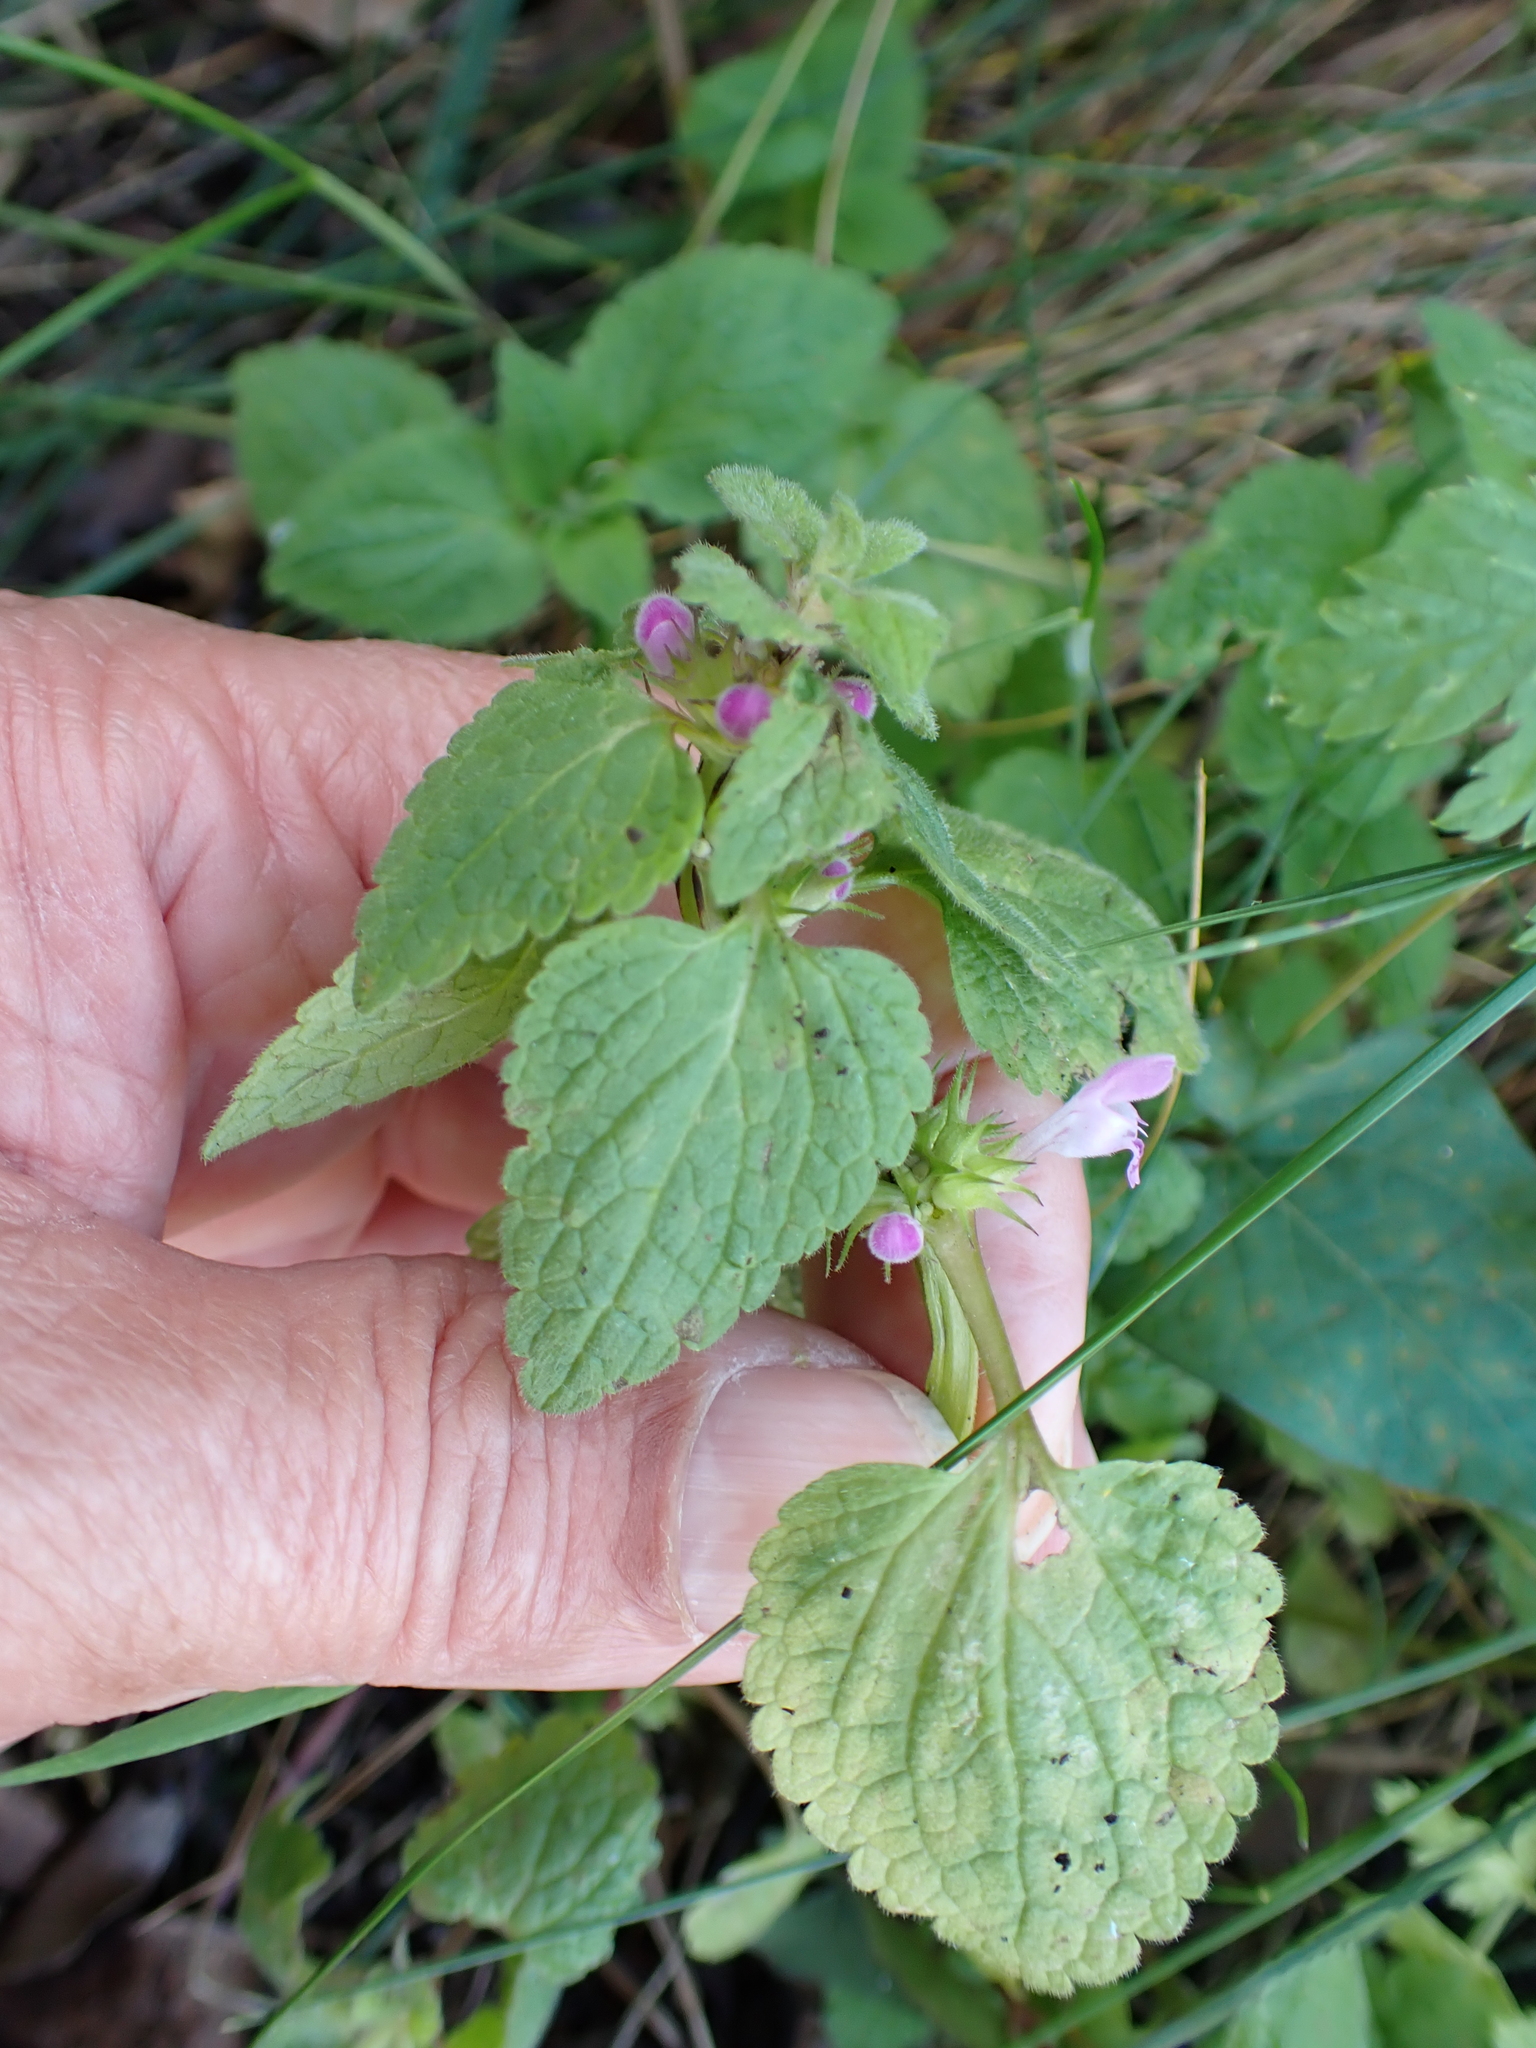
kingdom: Plantae
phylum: Tracheophyta
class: Magnoliopsida
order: Lamiales
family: Lamiaceae
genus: Lamium
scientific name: Lamium purpureum
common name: Red dead-nettle
